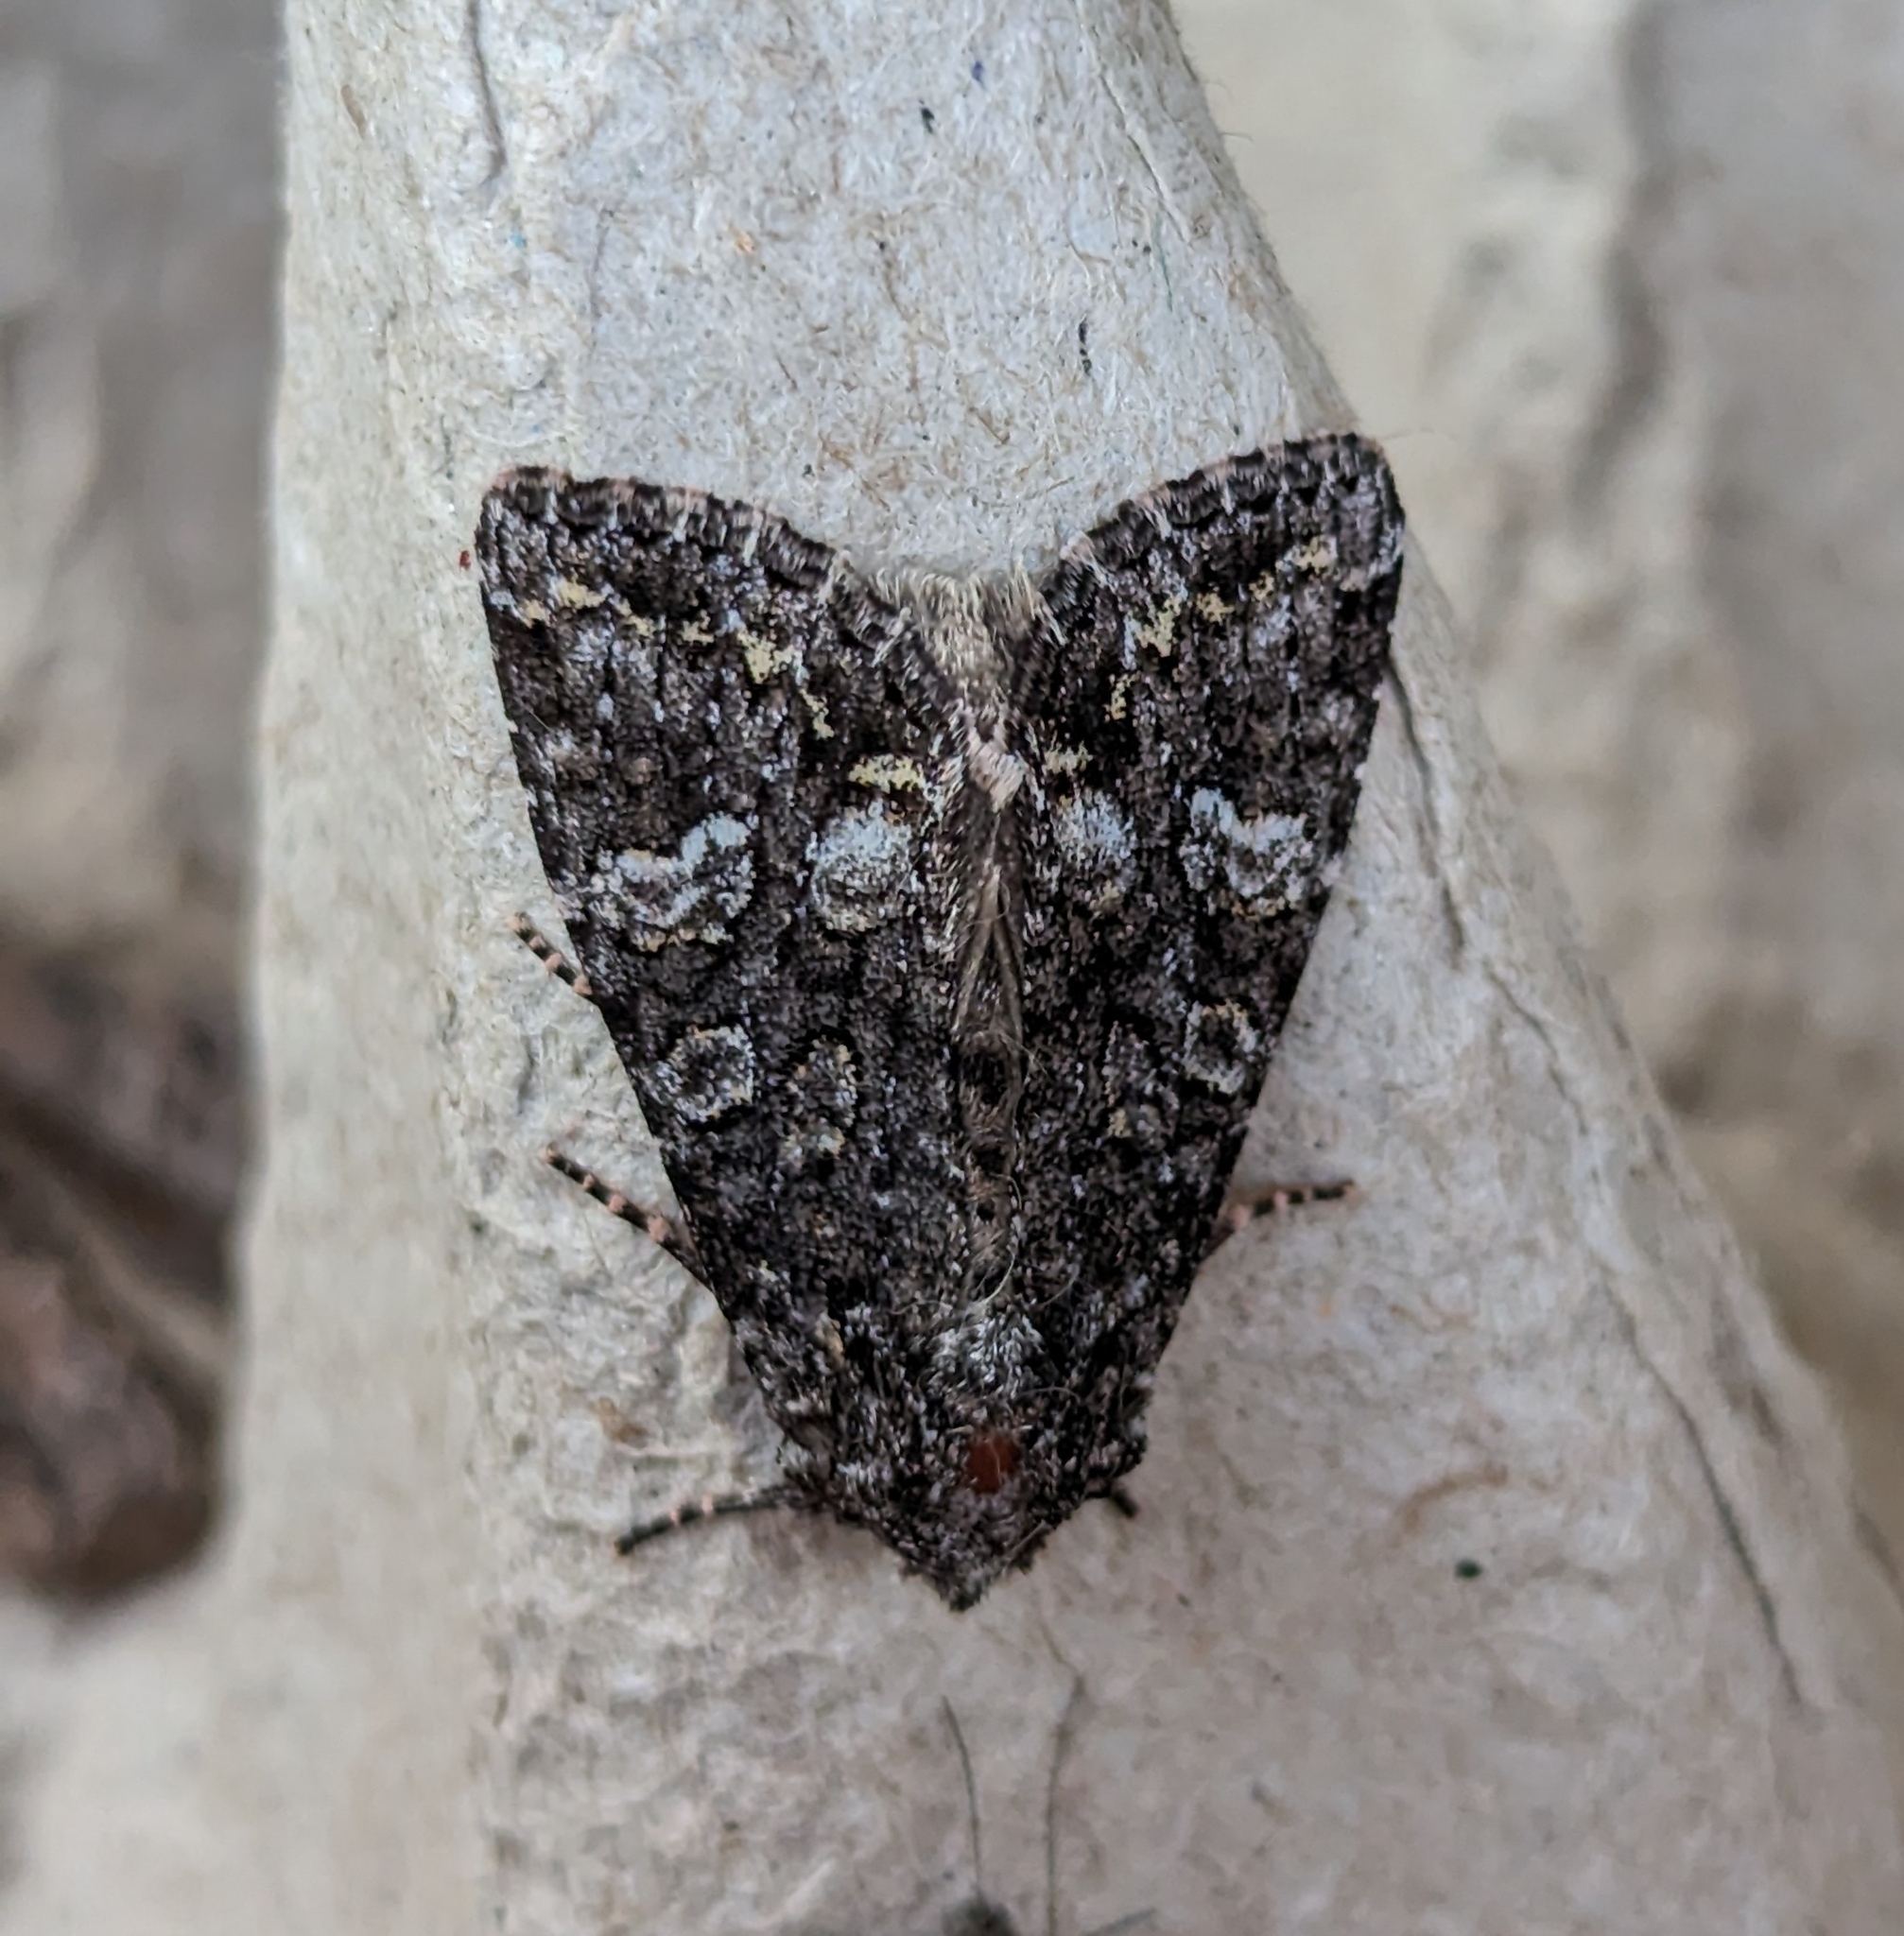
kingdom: Animalia
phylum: Arthropoda
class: Insecta
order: Lepidoptera
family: Noctuidae
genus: Papestra
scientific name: Papestra cristifera
